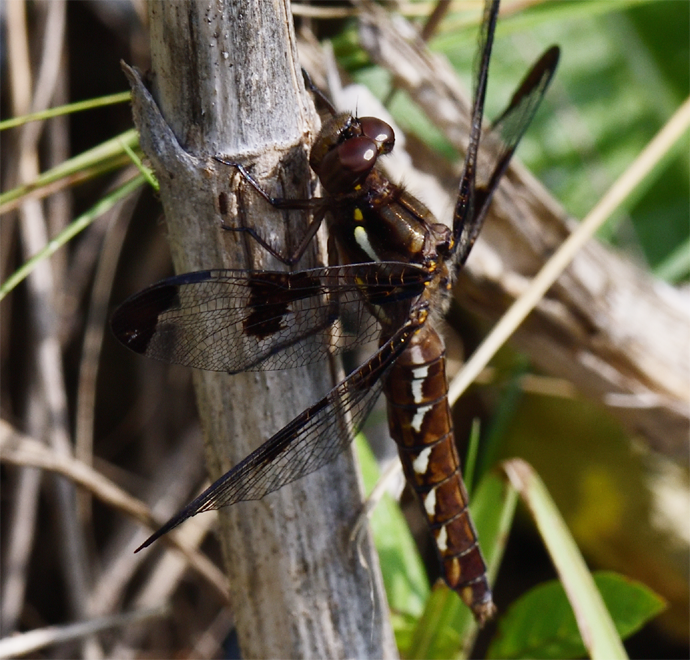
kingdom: Animalia
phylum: Arthropoda
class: Insecta
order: Odonata
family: Libellulidae
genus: Plathemis
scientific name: Plathemis lydia
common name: Common whitetail
